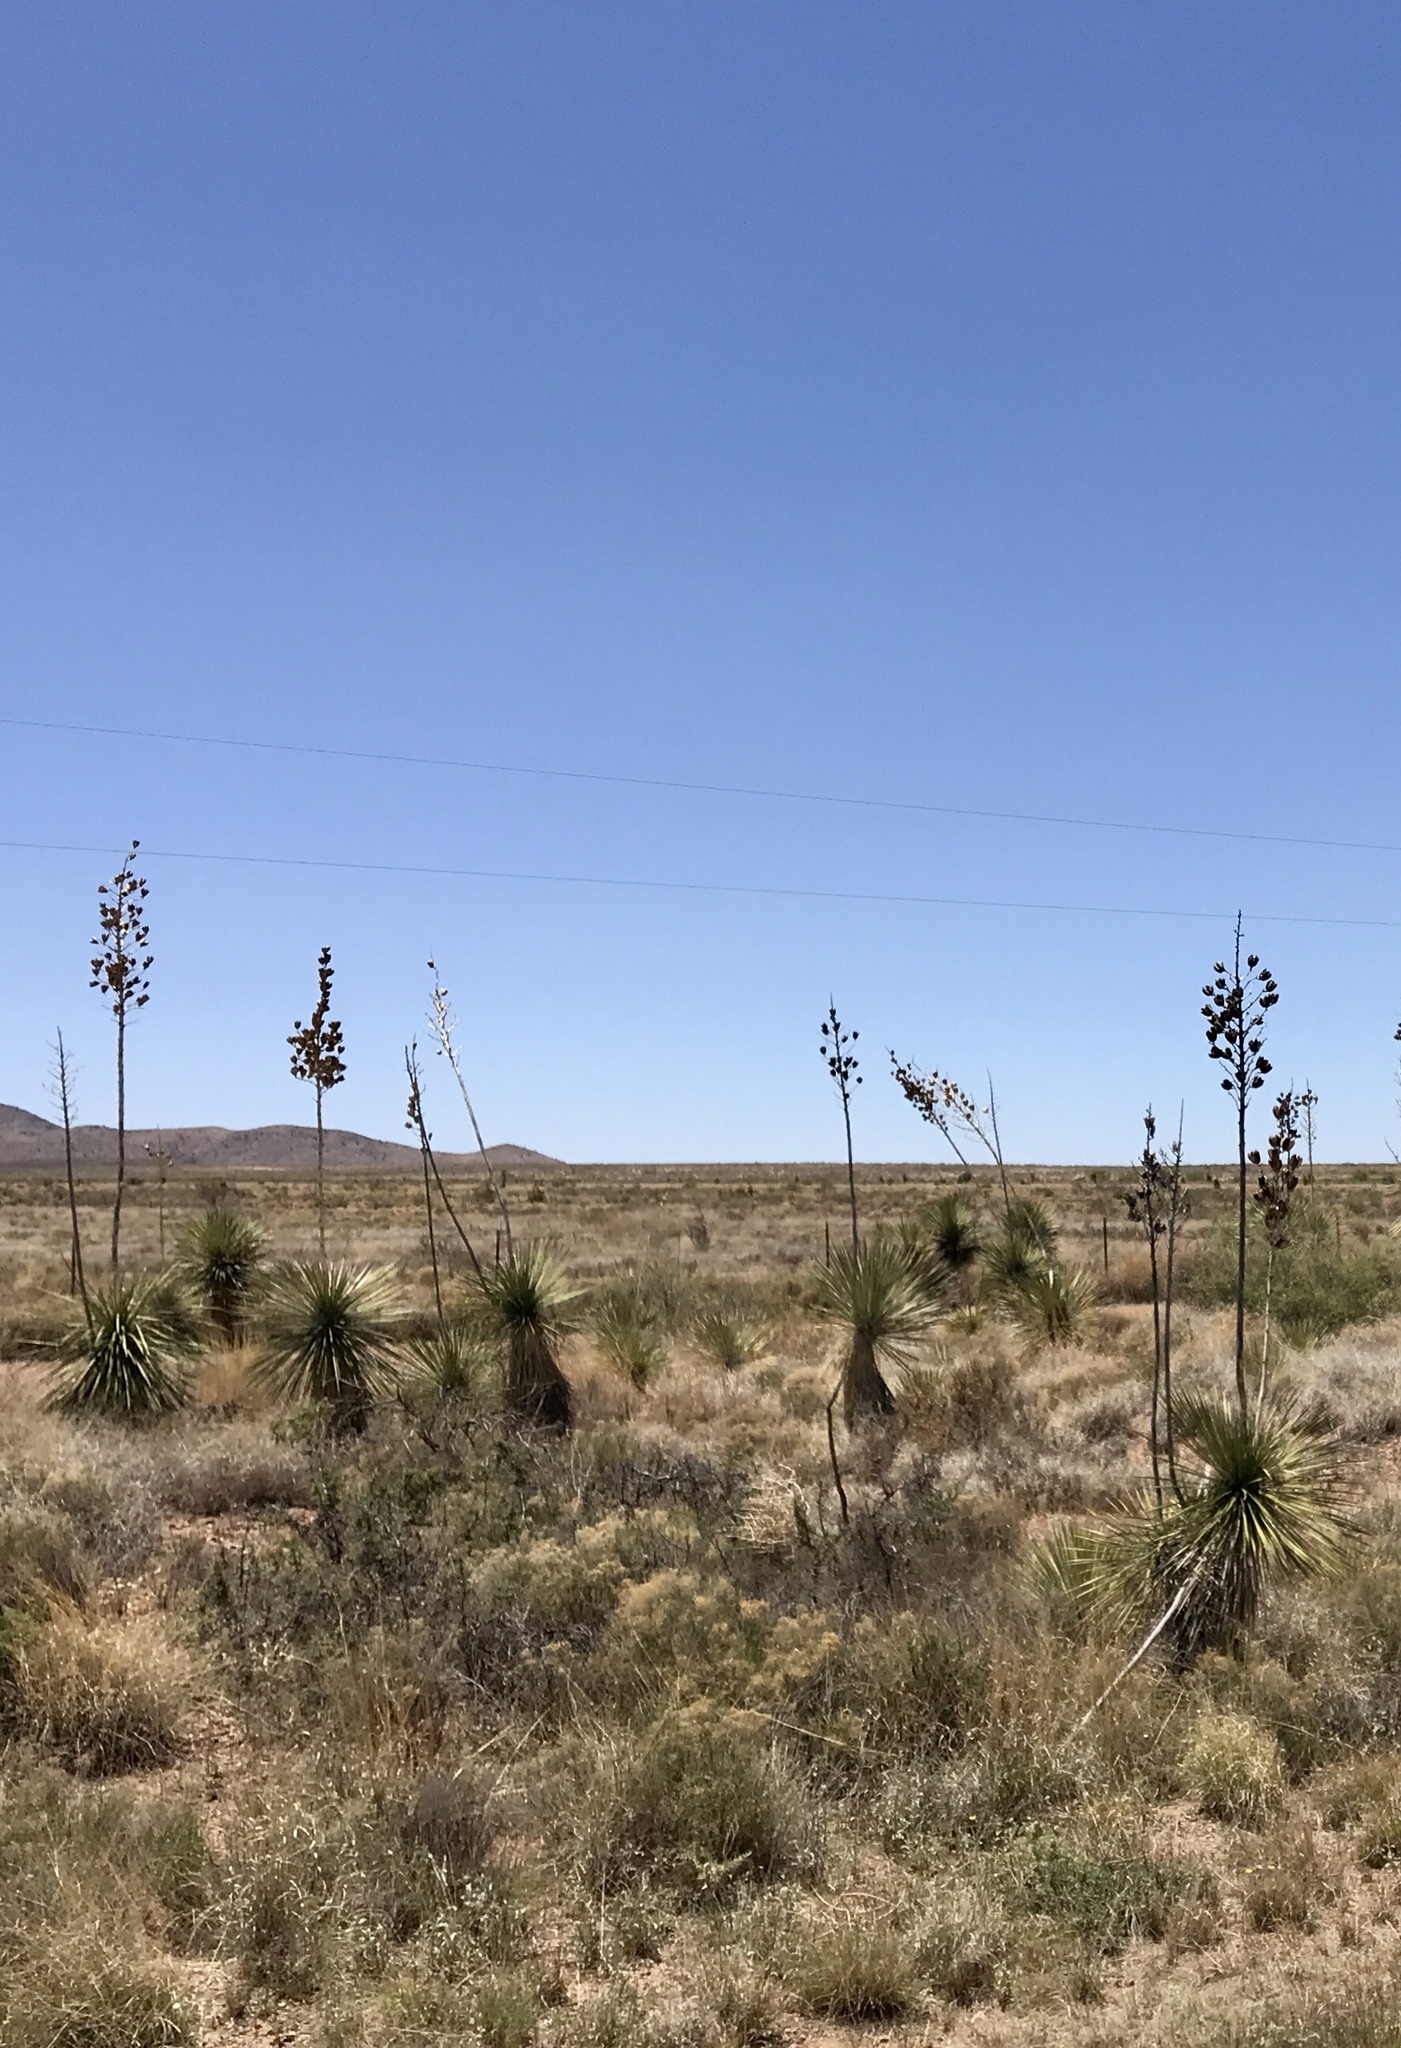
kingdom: Plantae
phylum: Tracheophyta
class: Liliopsida
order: Asparagales
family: Asparagaceae
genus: Yucca
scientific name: Yucca elata
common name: Palmella
